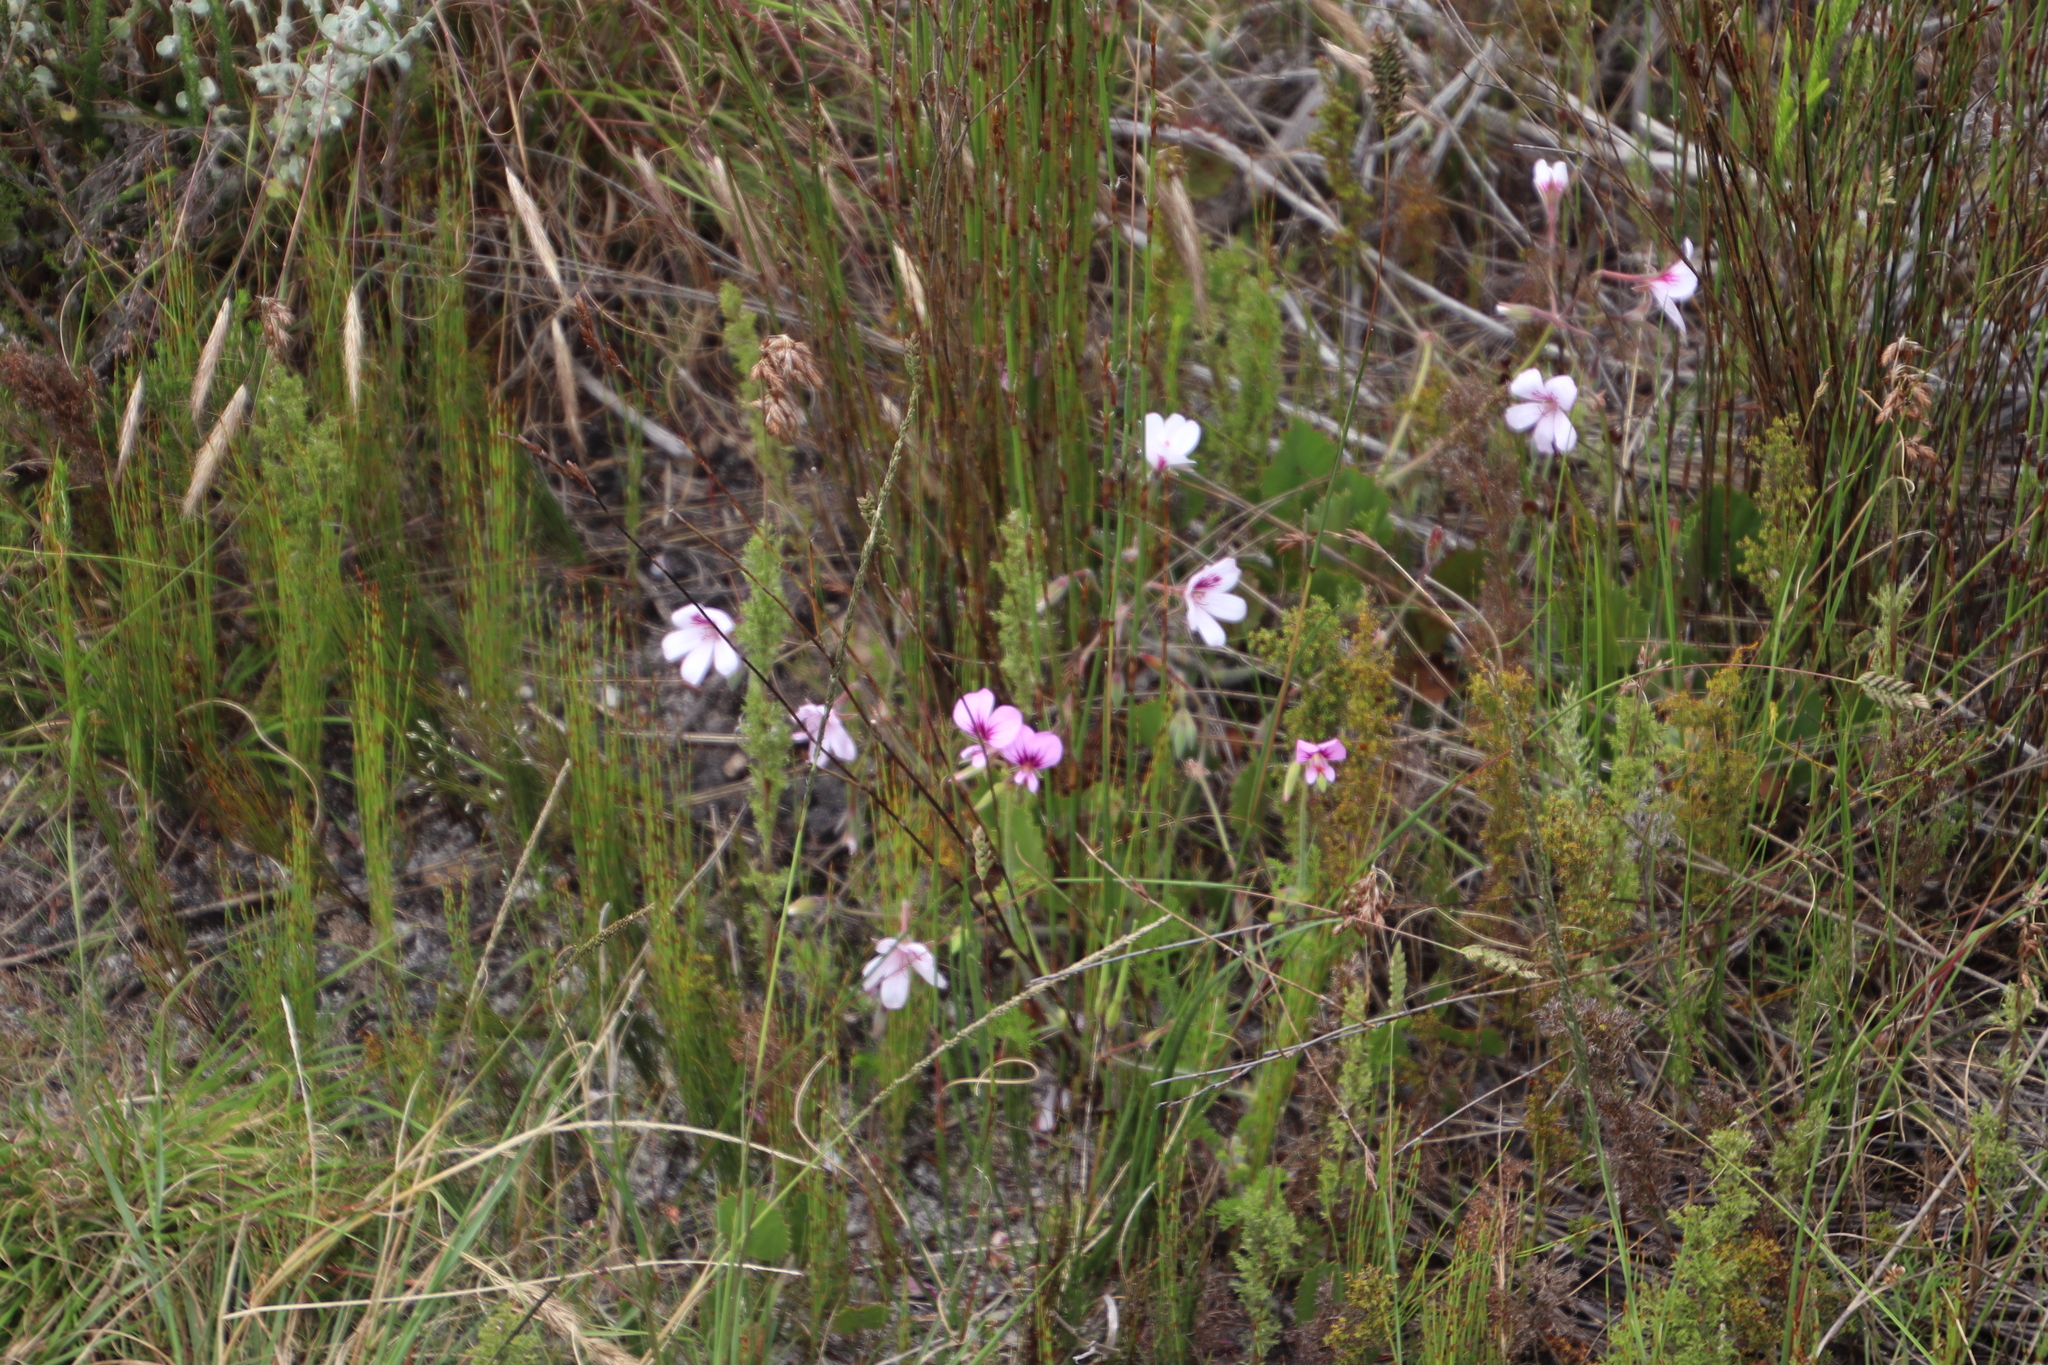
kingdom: Plantae
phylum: Tracheophyta
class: Magnoliopsida
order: Geraniales
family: Geraniaceae
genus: Pelargonium
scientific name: Pelargonium elegans
